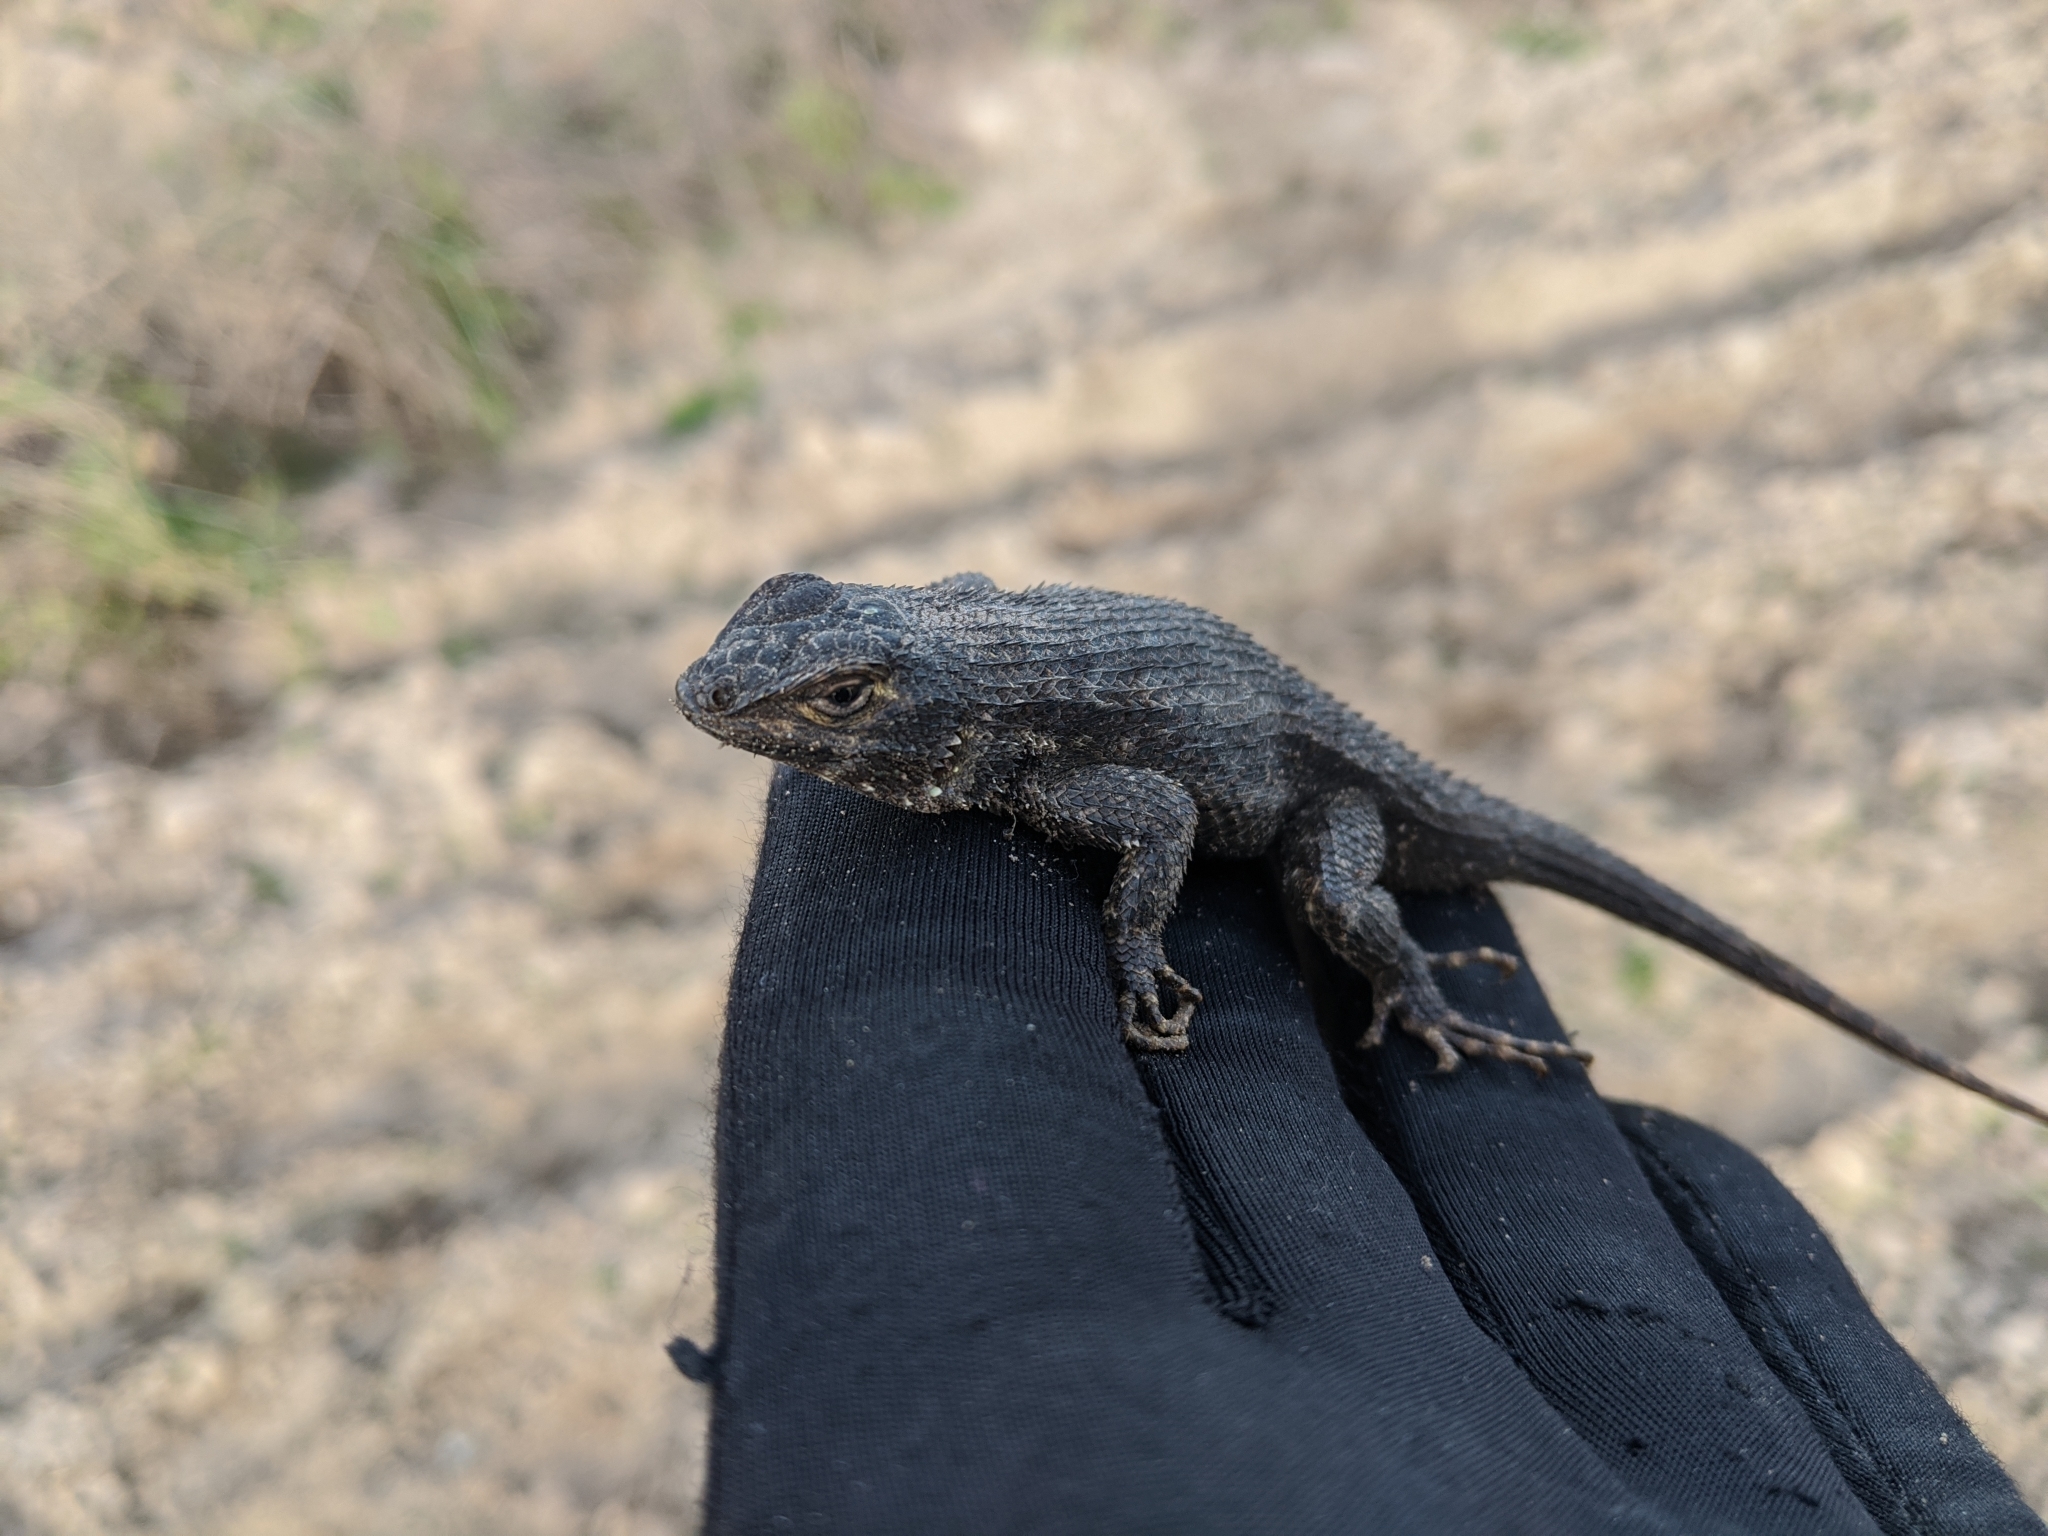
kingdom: Animalia
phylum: Chordata
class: Squamata
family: Phrynosomatidae
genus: Sceloporus
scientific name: Sceloporus occidentalis
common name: Western fence lizard
